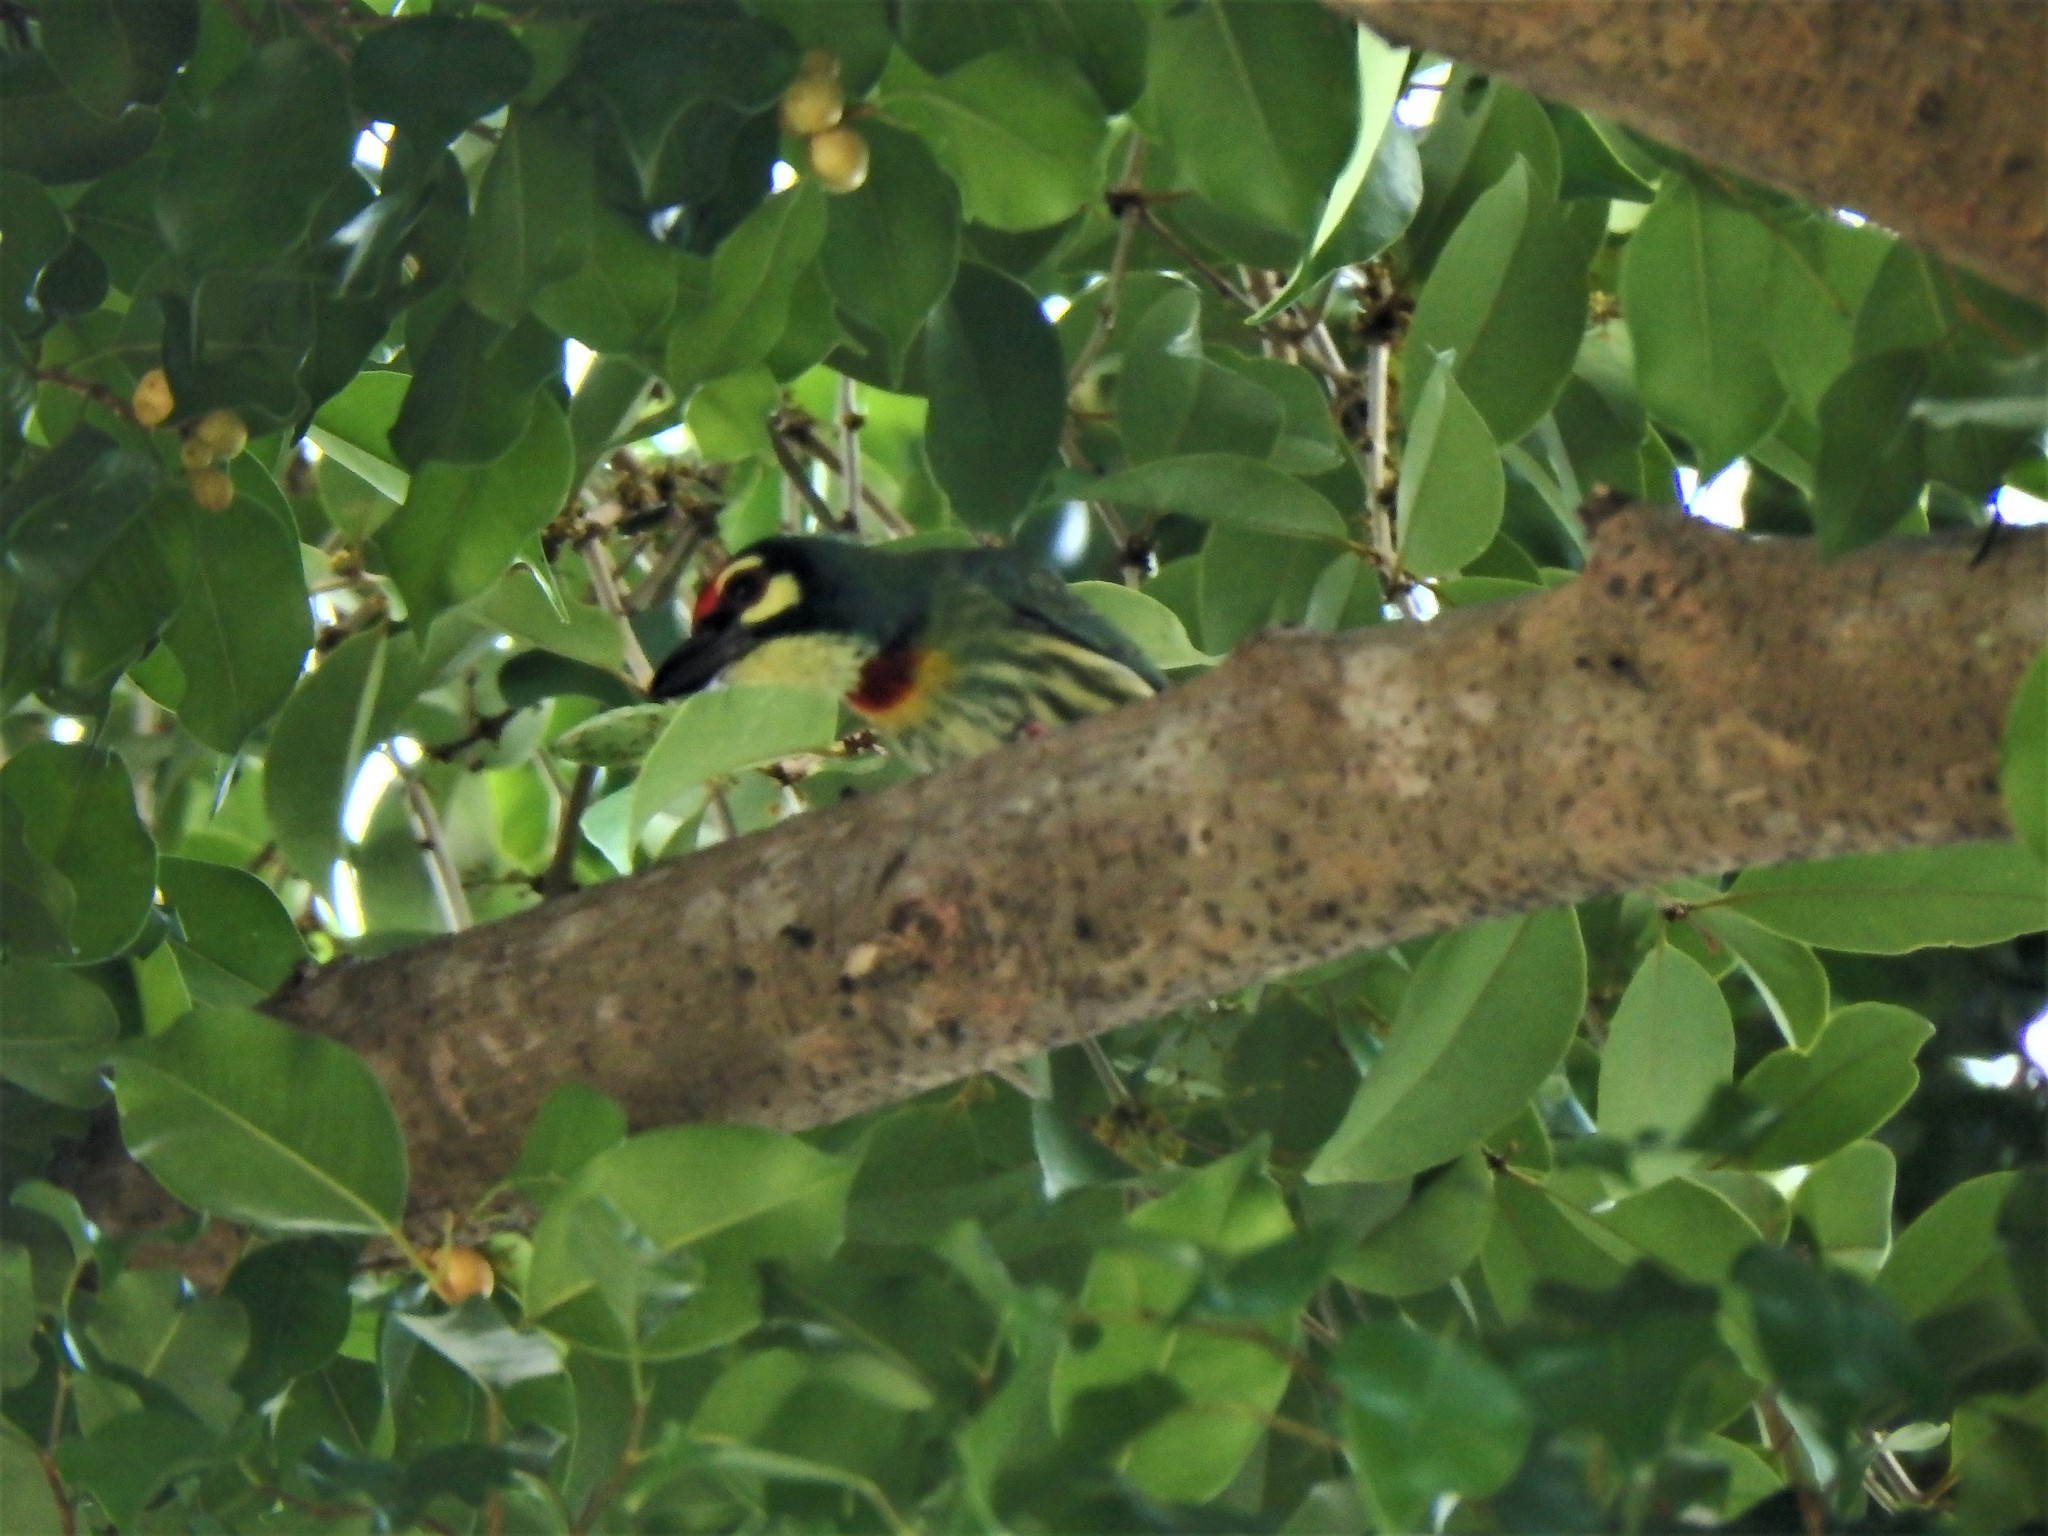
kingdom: Animalia
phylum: Chordata
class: Aves
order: Piciformes
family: Megalaimidae
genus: Psilopogon
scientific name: Psilopogon haemacephalus
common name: Coppersmith barbet
